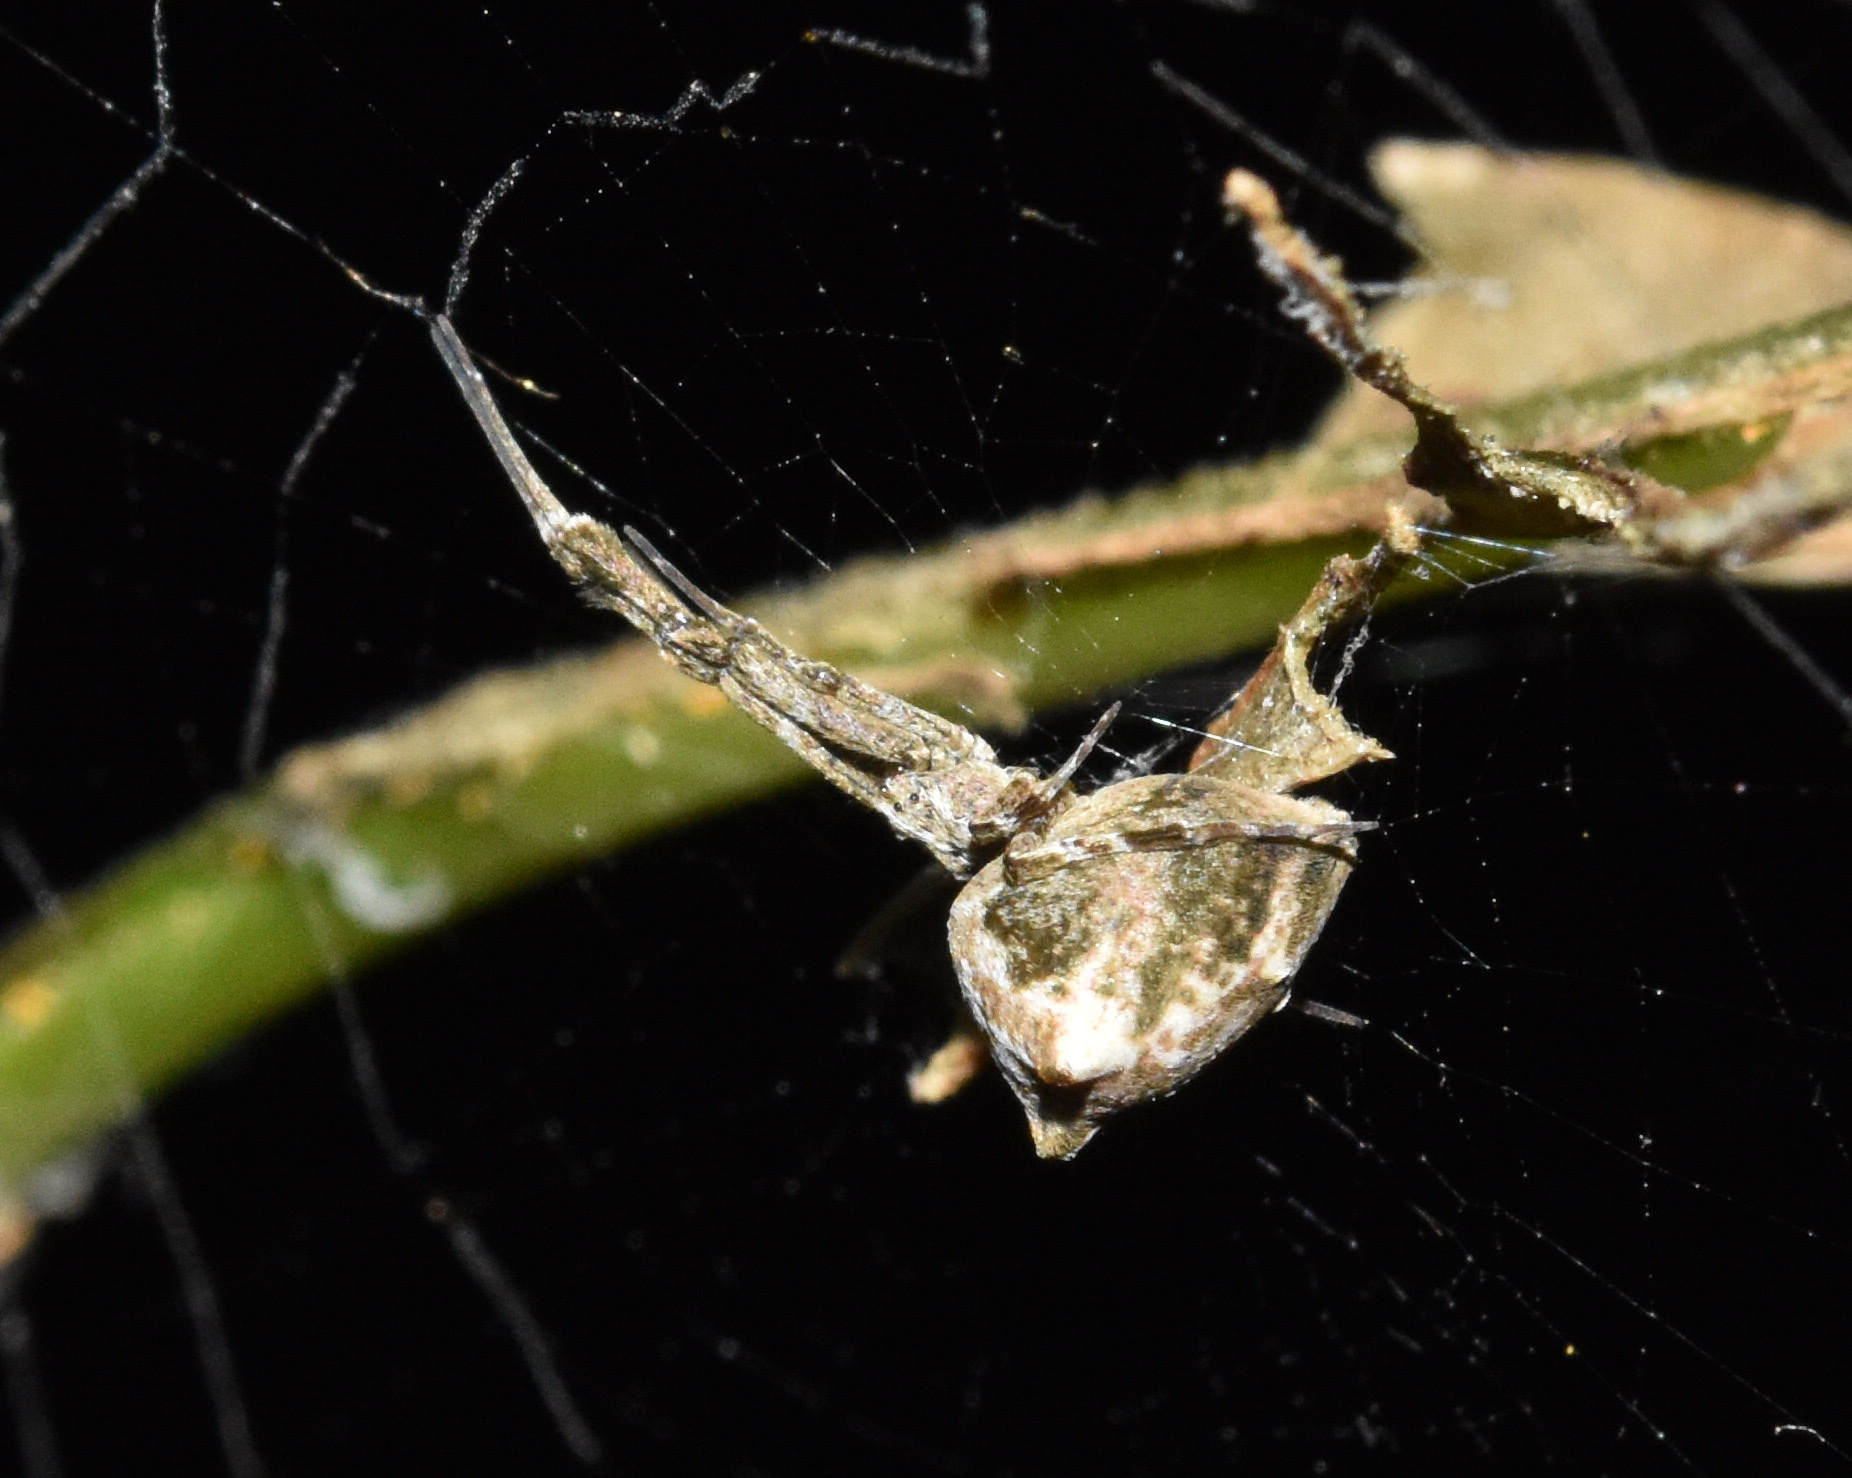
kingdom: Animalia
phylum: Arthropoda
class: Arachnida
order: Araneae
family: Uloboridae
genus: Uloborus
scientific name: Uloborus plumipes
